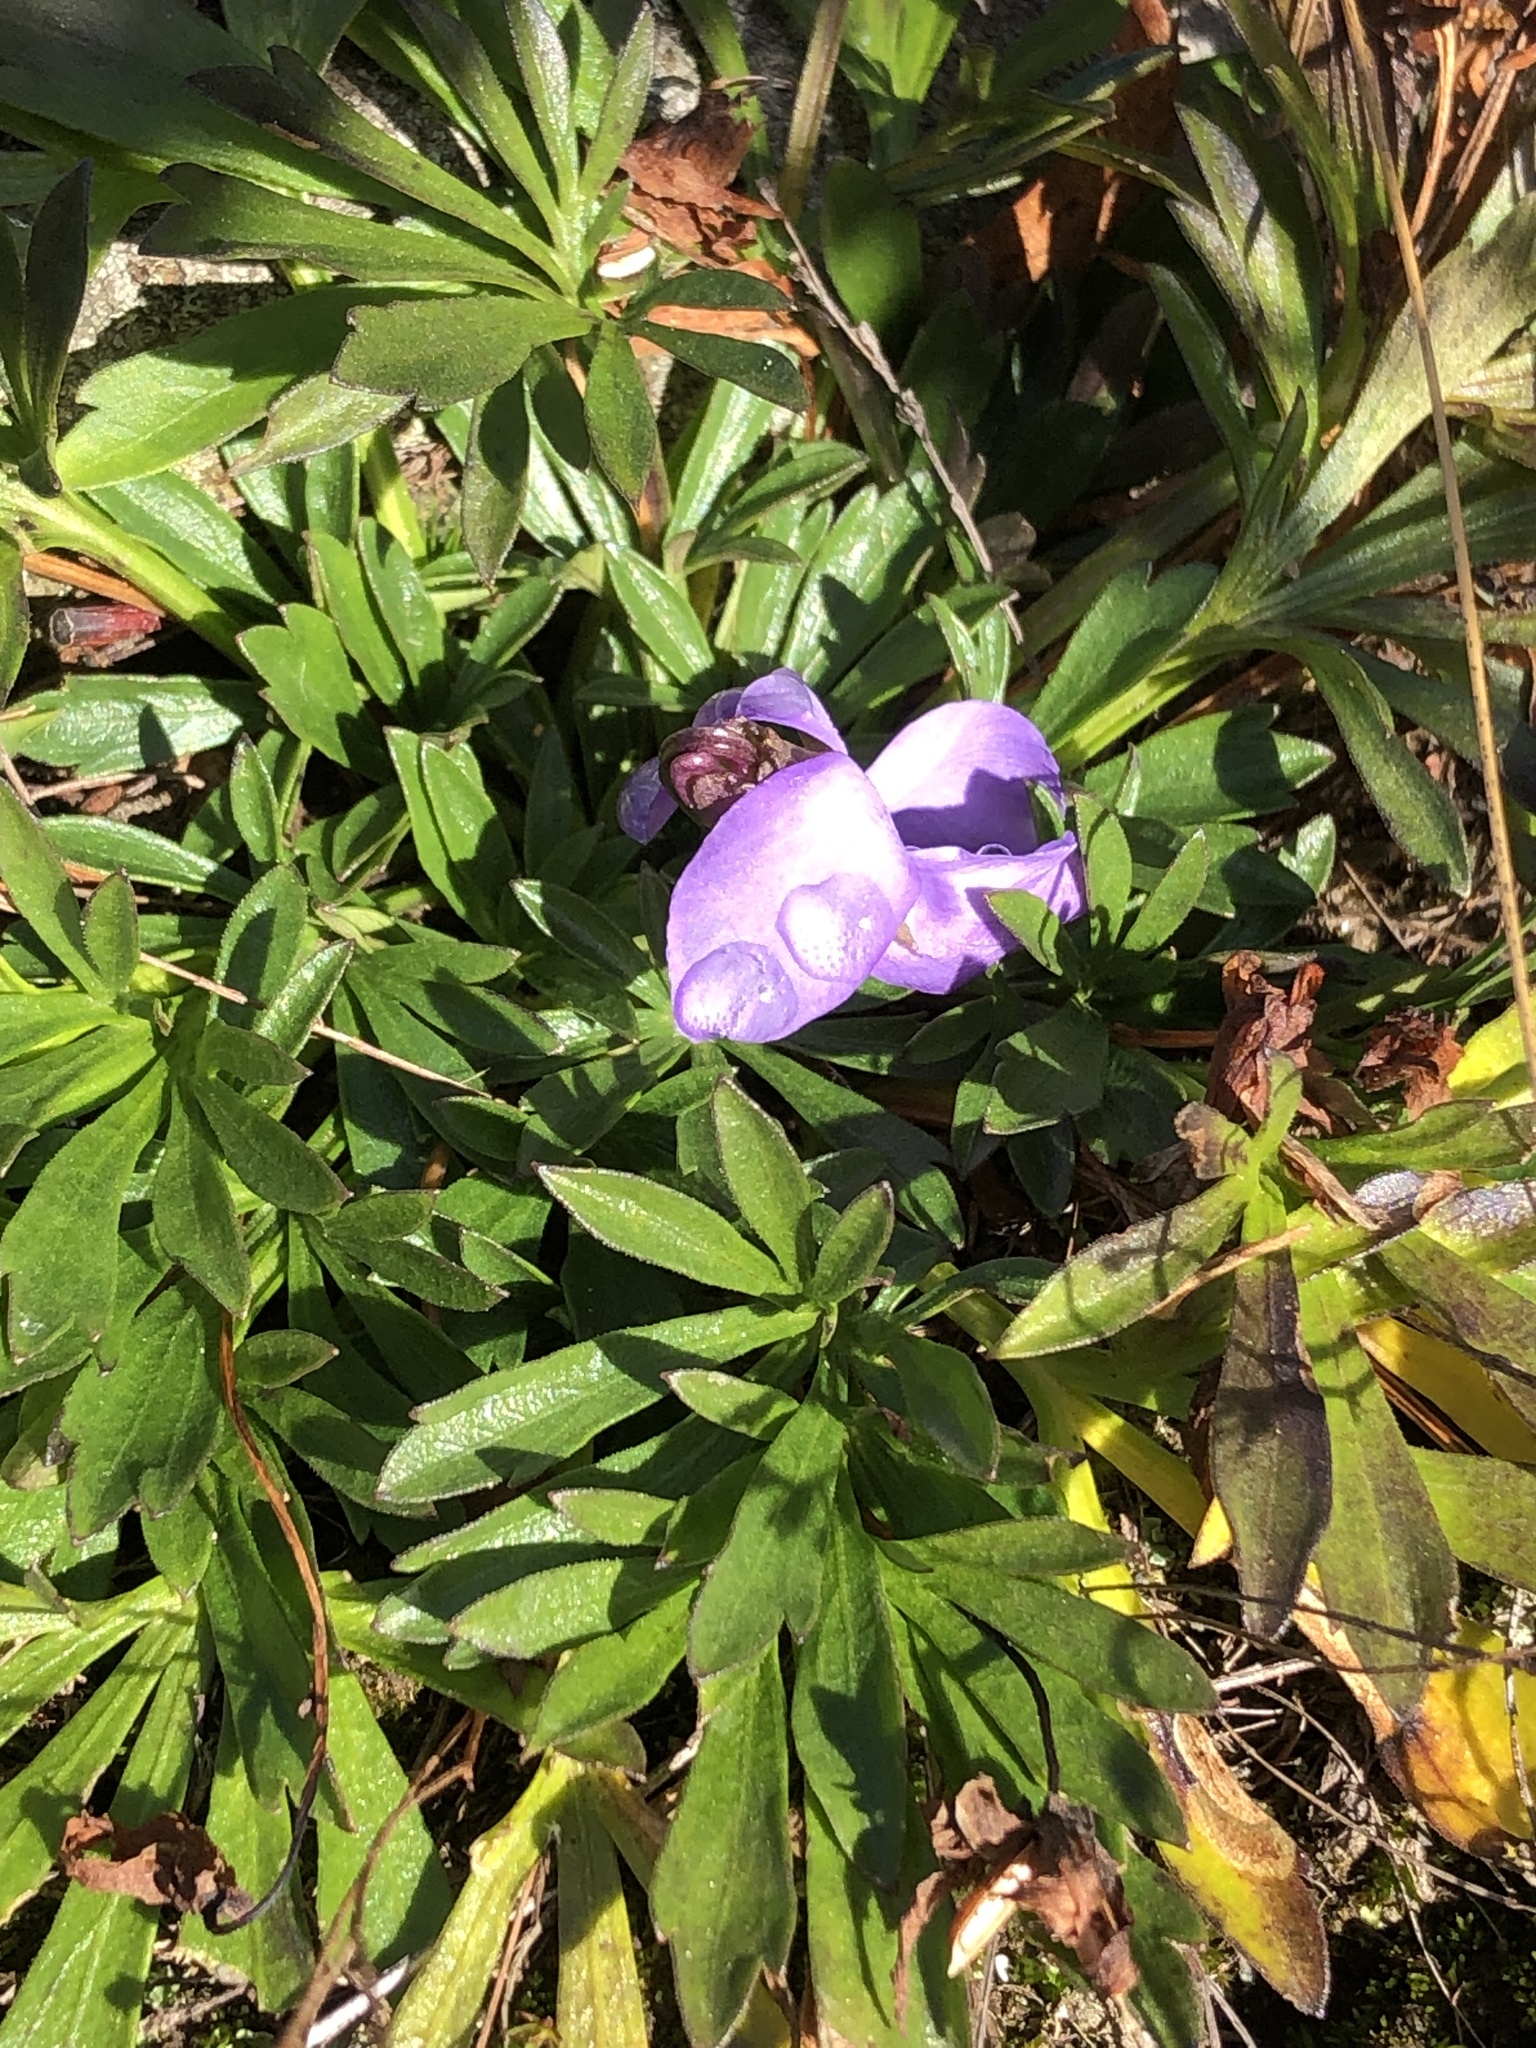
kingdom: Plantae
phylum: Tracheophyta
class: Magnoliopsida
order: Malpighiales
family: Violaceae
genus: Viola
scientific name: Viola pedata
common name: Pansy violet
